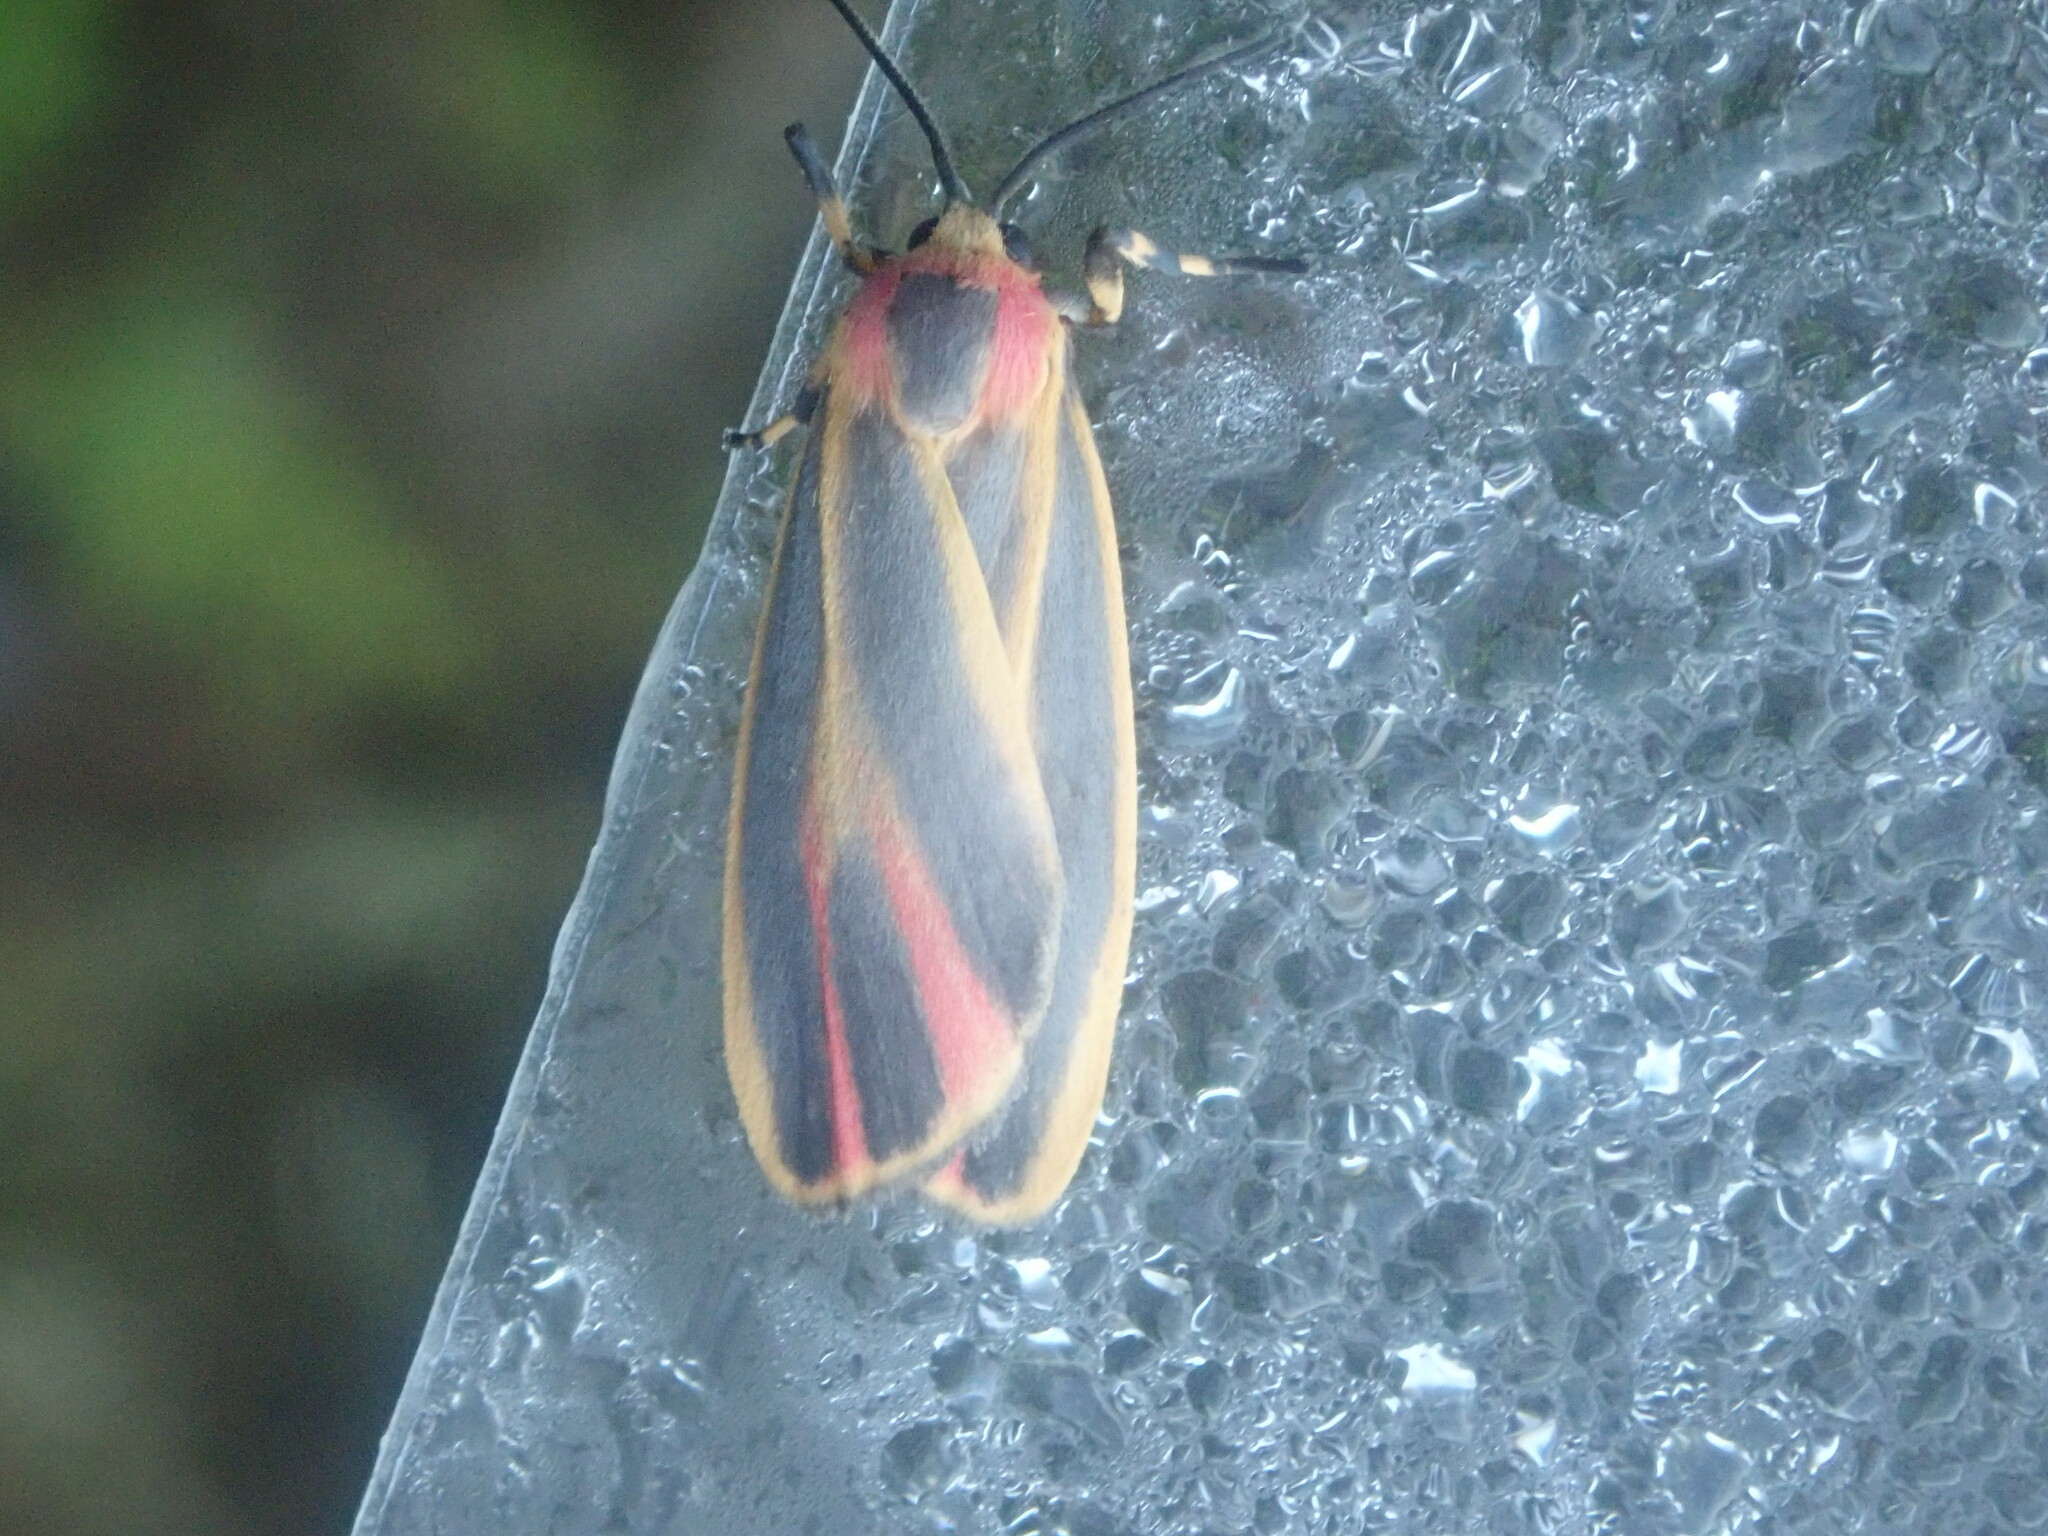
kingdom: Animalia
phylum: Arthropoda
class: Insecta
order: Lepidoptera
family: Erebidae
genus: Hypoprepia
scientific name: Hypoprepia fucosa
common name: Painted lichen moth
